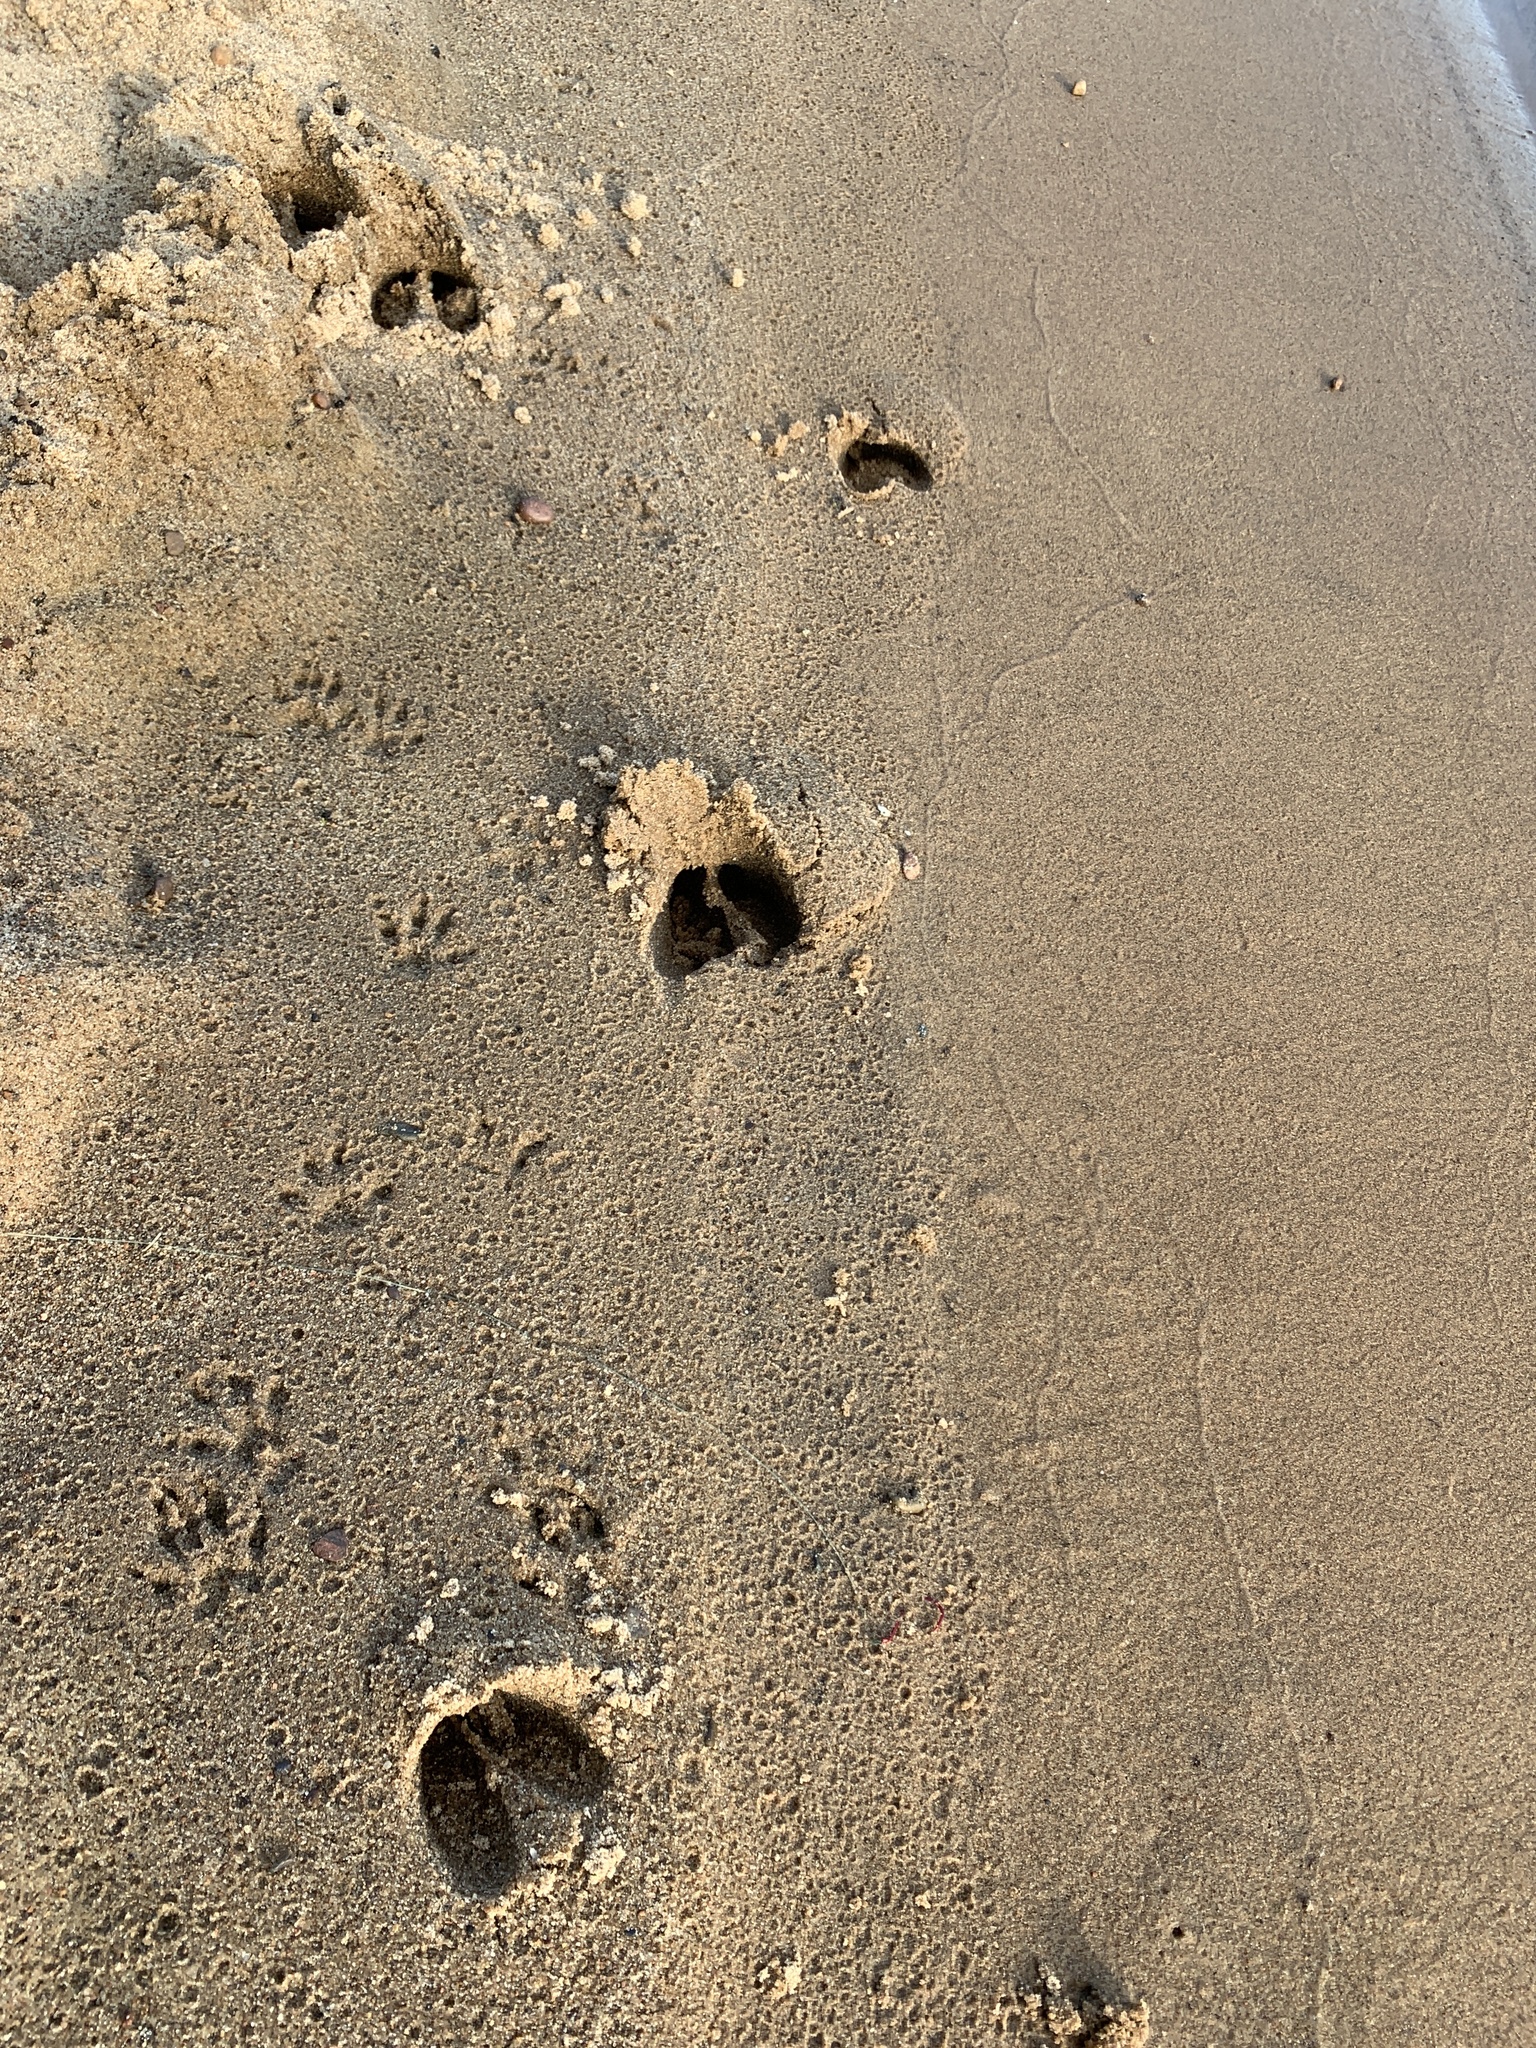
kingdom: Animalia
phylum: Chordata
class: Mammalia
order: Artiodactyla
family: Cervidae
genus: Odocoileus
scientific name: Odocoileus virginianus
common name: White-tailed deer
